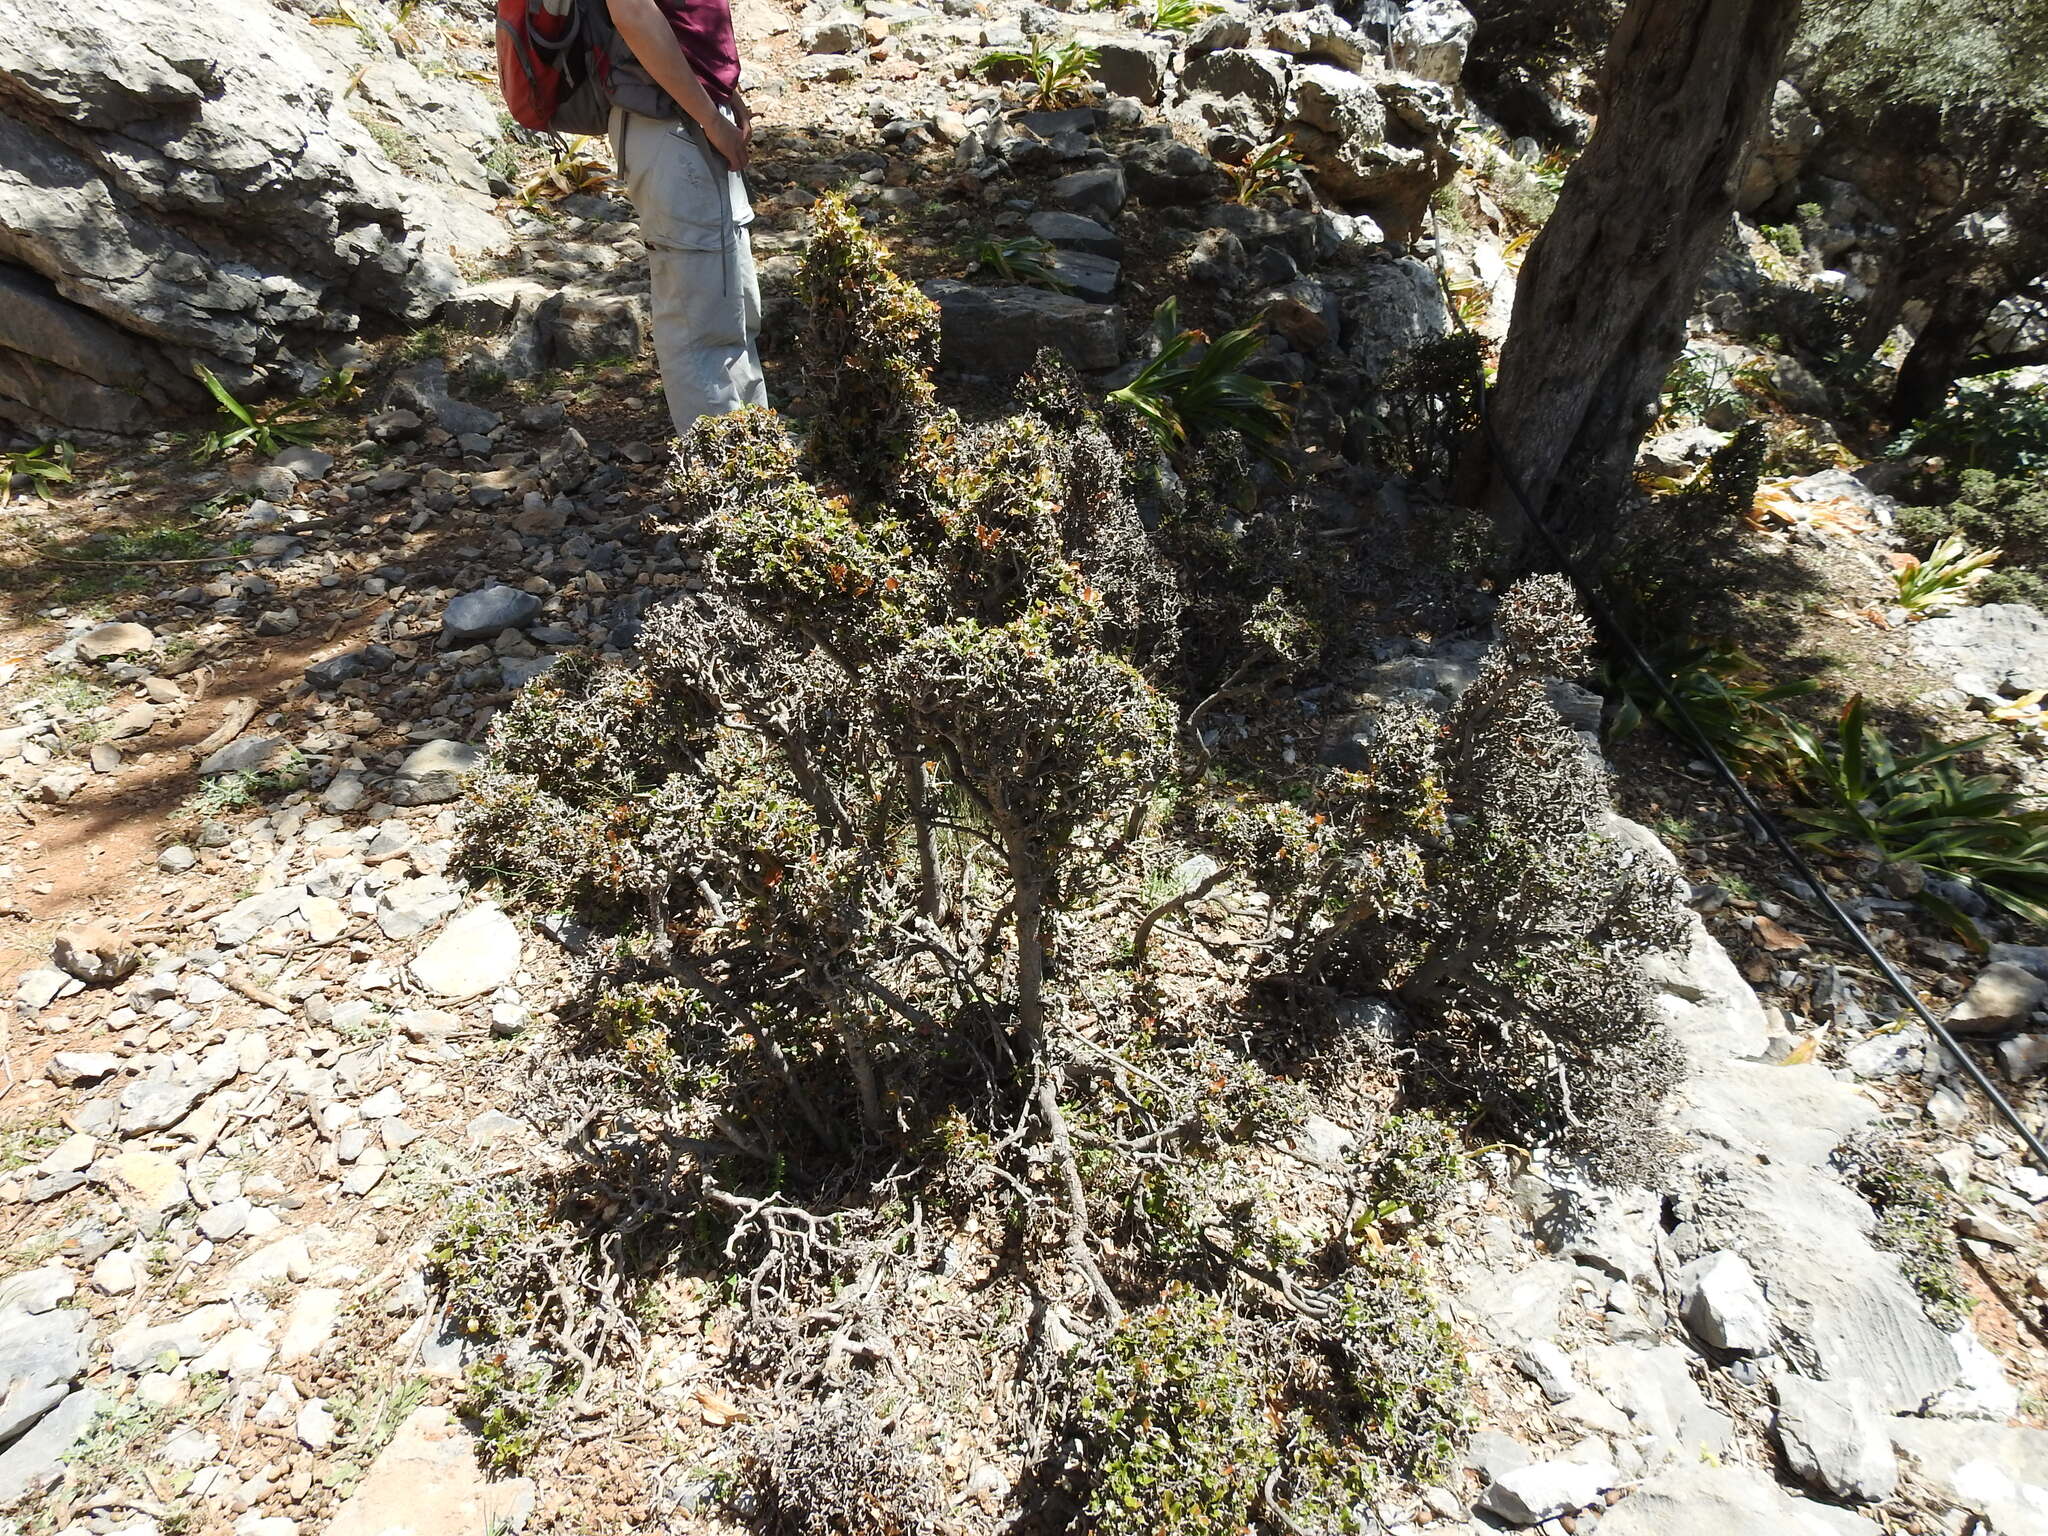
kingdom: Plantae
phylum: Tracheophyta
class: Magnoliopsida
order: Fagales
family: Fagaceae
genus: Quercus
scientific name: Quercus coccifera
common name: Kermes oak
